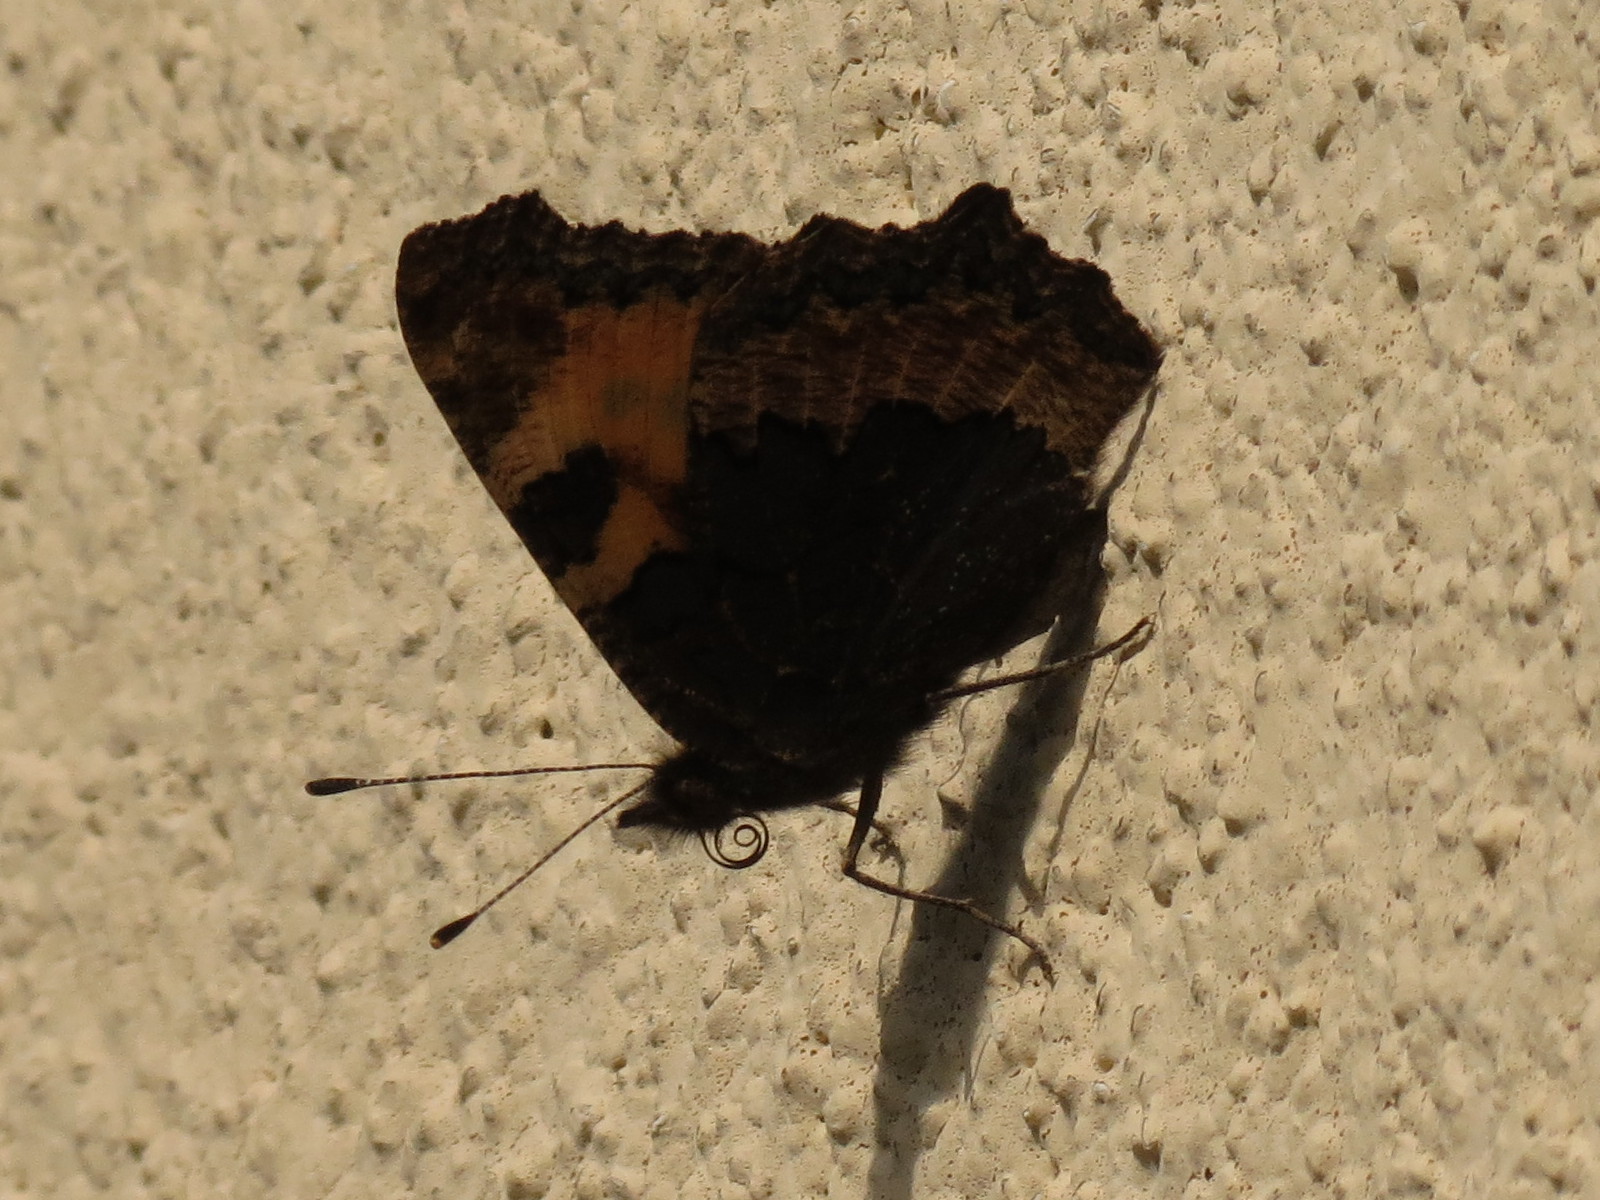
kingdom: Animalia
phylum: Arthropoda
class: Insecta
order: Lepidoptera
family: Nymphalidae
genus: Aglais
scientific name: Aglais urticae
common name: Small tortoiseshell
